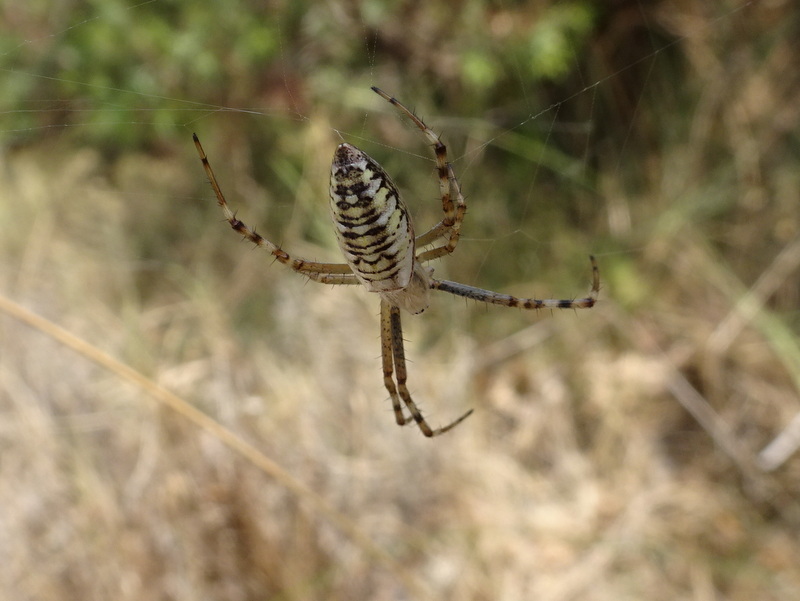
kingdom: Animalia
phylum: Arthropoda
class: Arachnida
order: Araneae
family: Araneidae
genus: Argiope
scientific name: Argiope bruennichi
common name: Wasp spider
